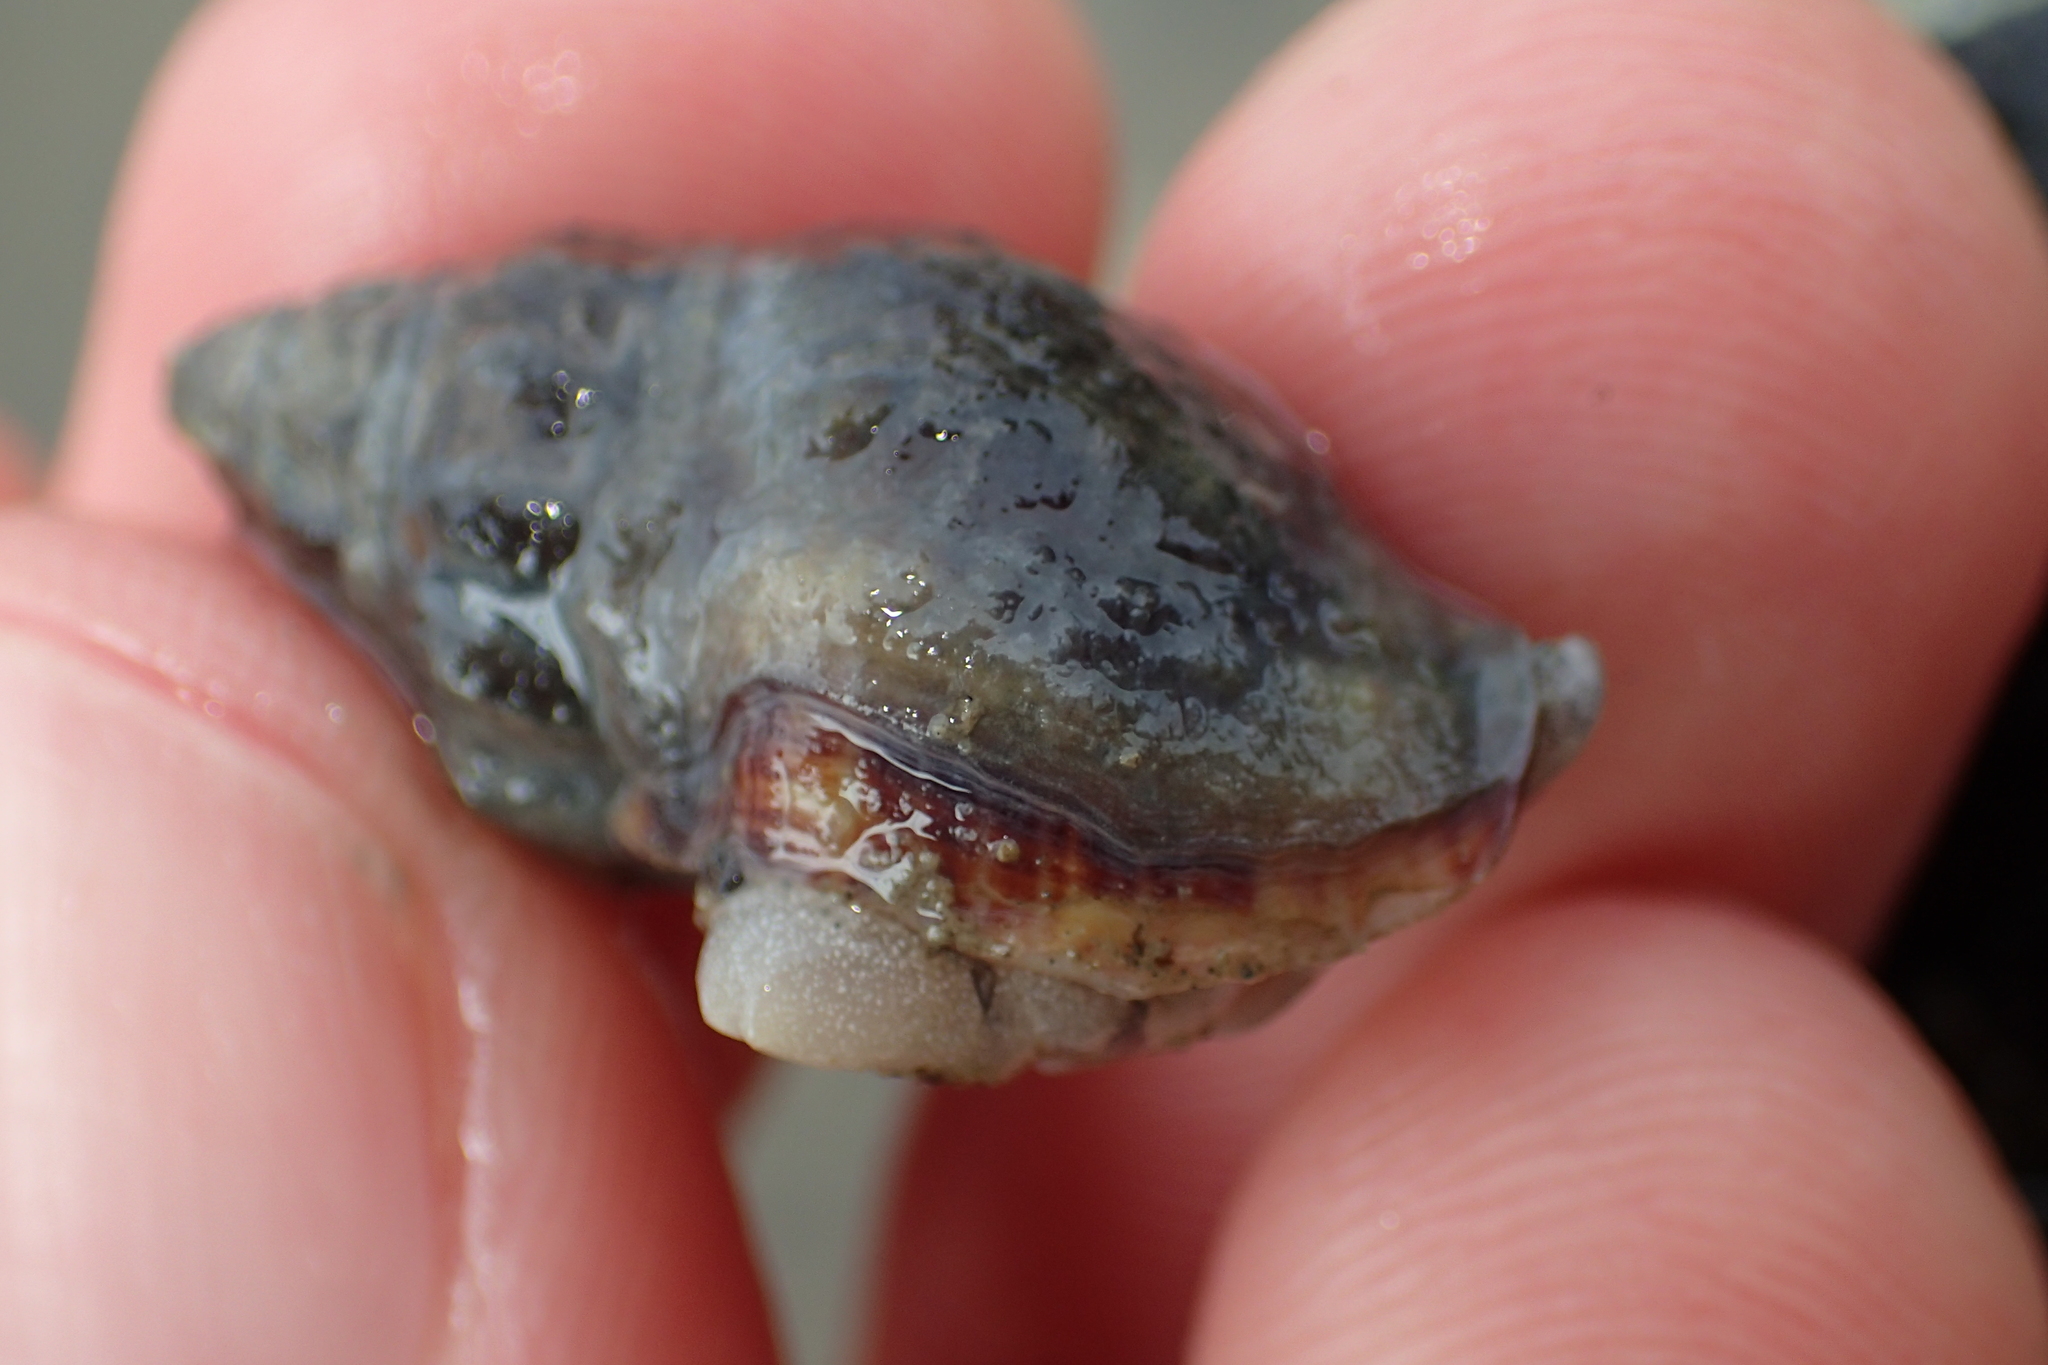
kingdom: Animalia
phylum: Mollusca
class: Gastropoda
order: Neogastropoda
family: Cominellidae
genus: Cominella
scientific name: Cominella glandiformis
